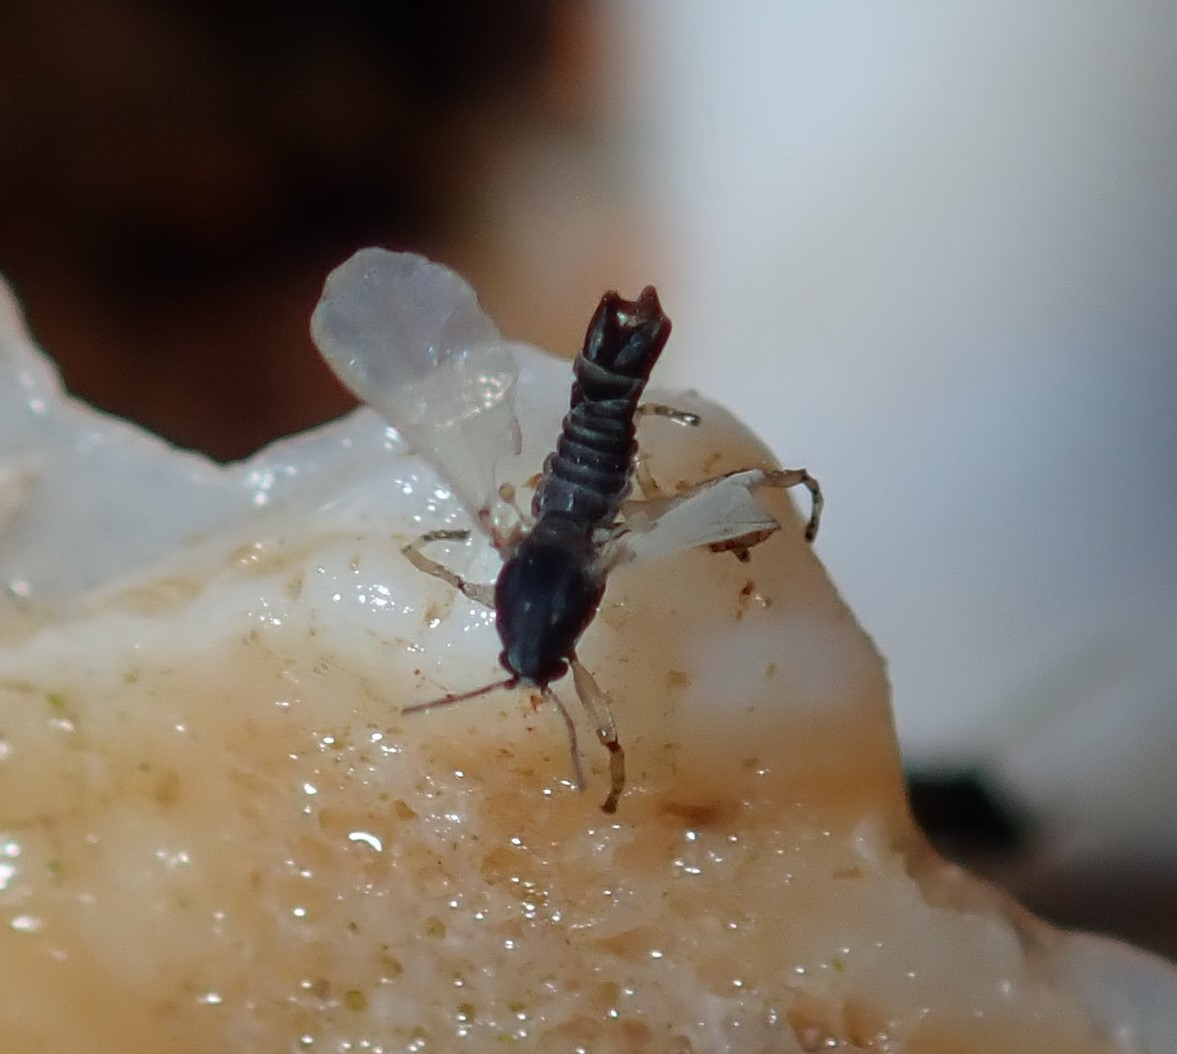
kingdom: Animalia
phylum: Arthropoda
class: Insecta
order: Diptera
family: Chironomidae
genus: Clunio
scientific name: Clunio pacificus
